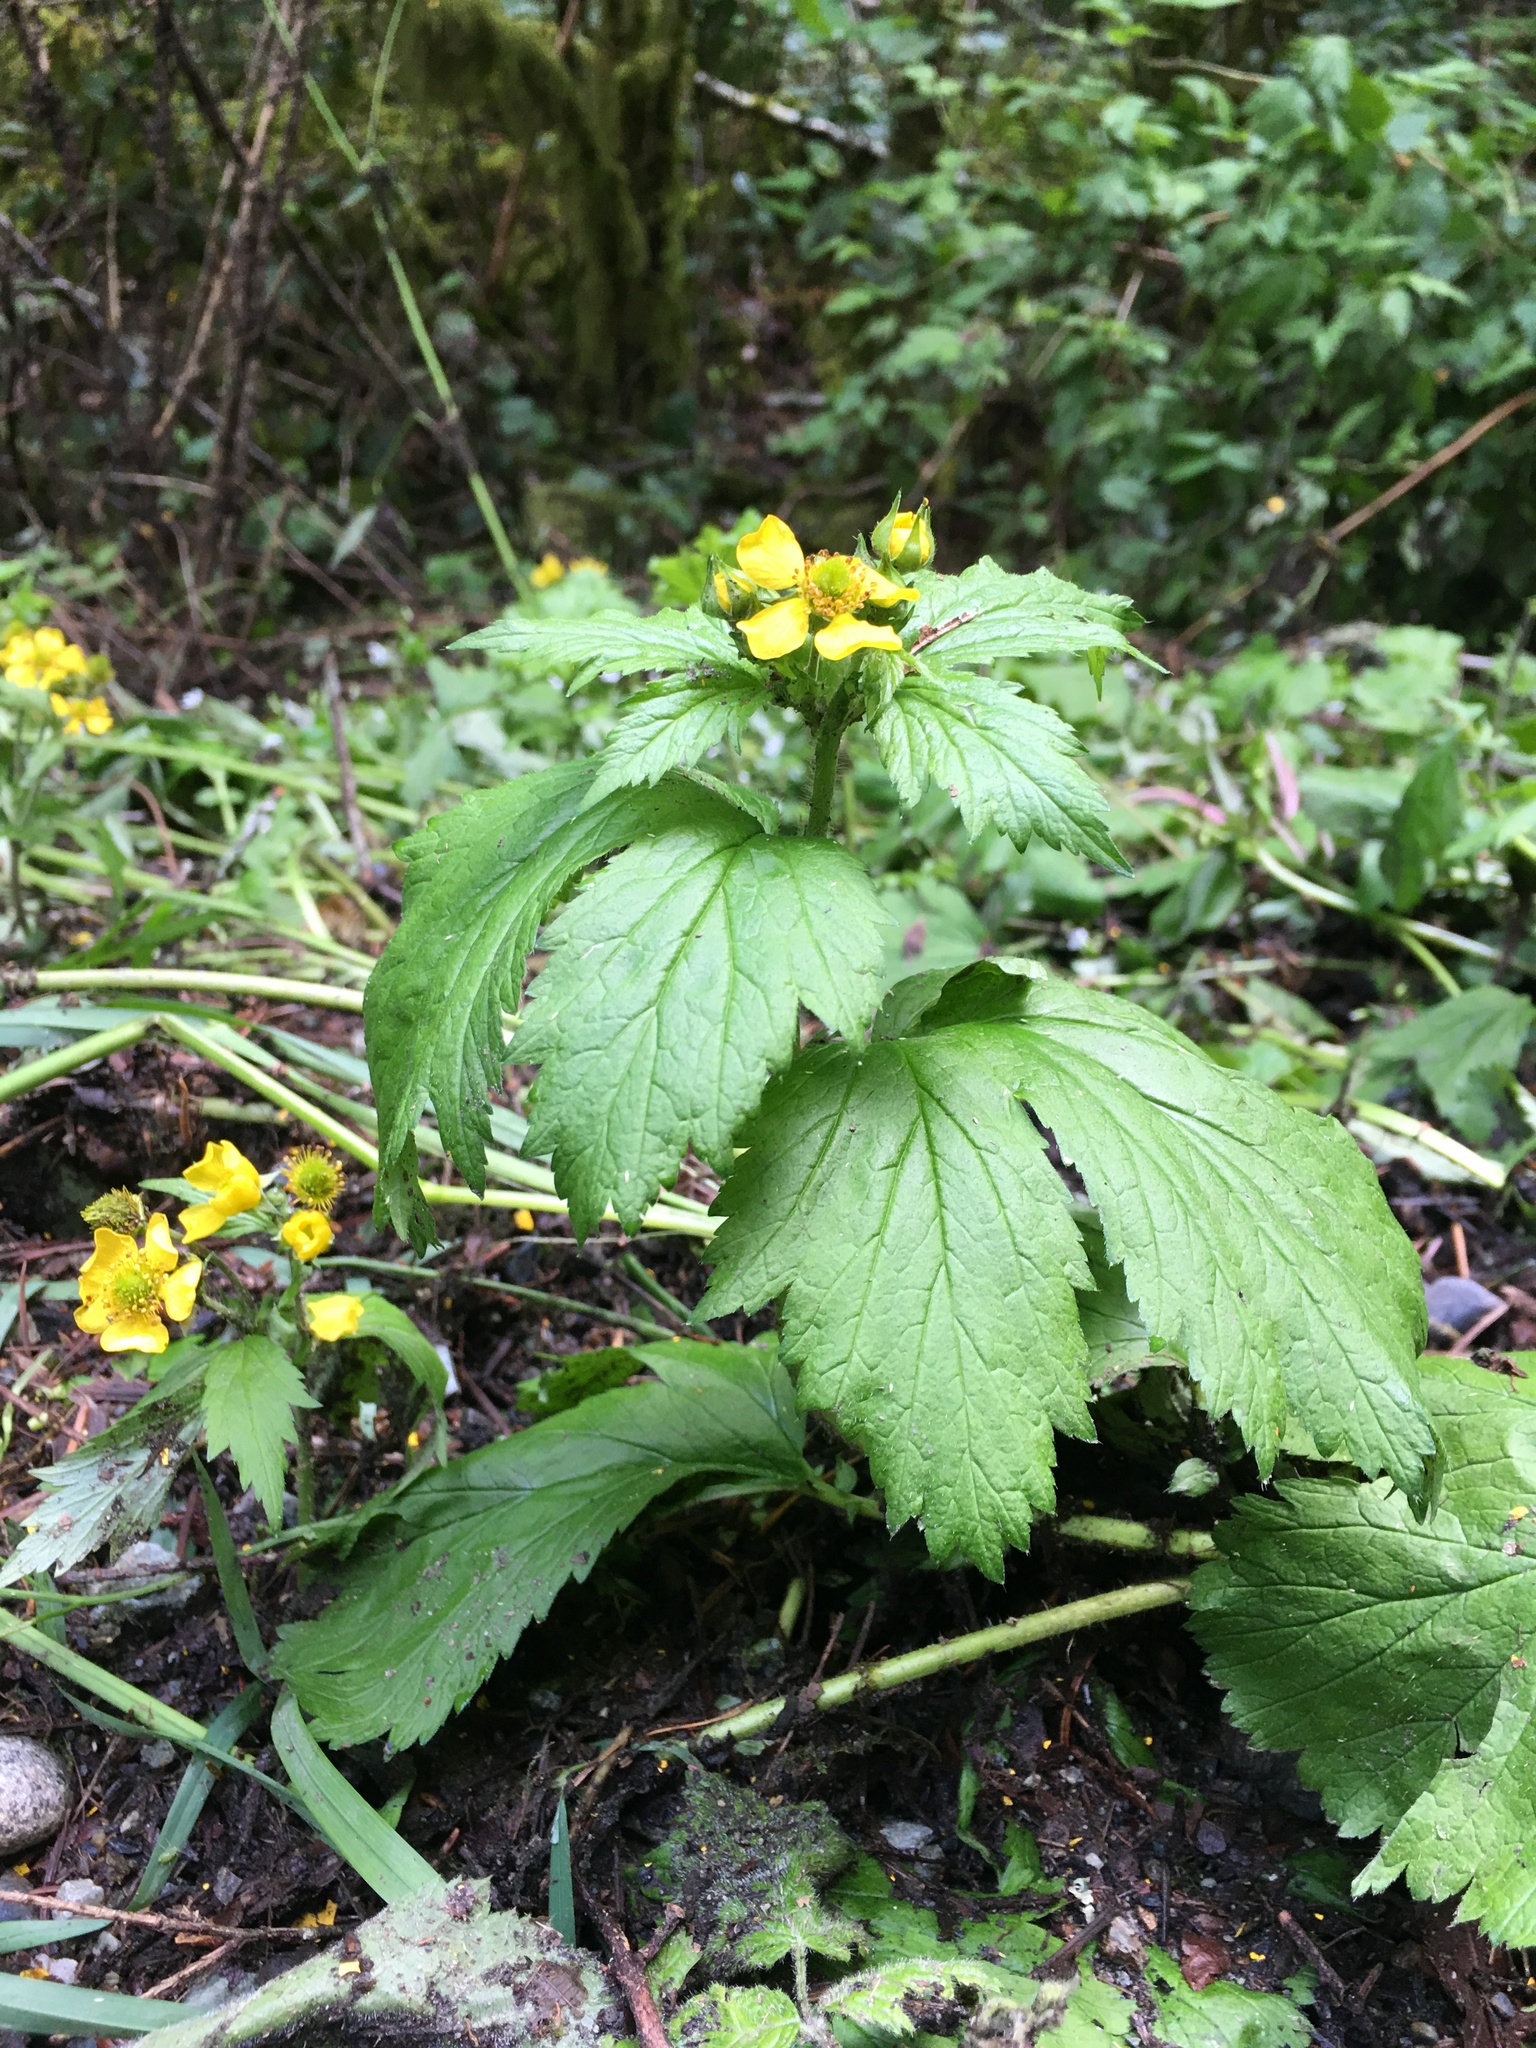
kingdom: Plantae
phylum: Tracheophyta
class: Magnoliopsida
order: Rosales
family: Rosaceae
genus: Geum
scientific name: Geum macrophyllum
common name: Large-leaved avens
